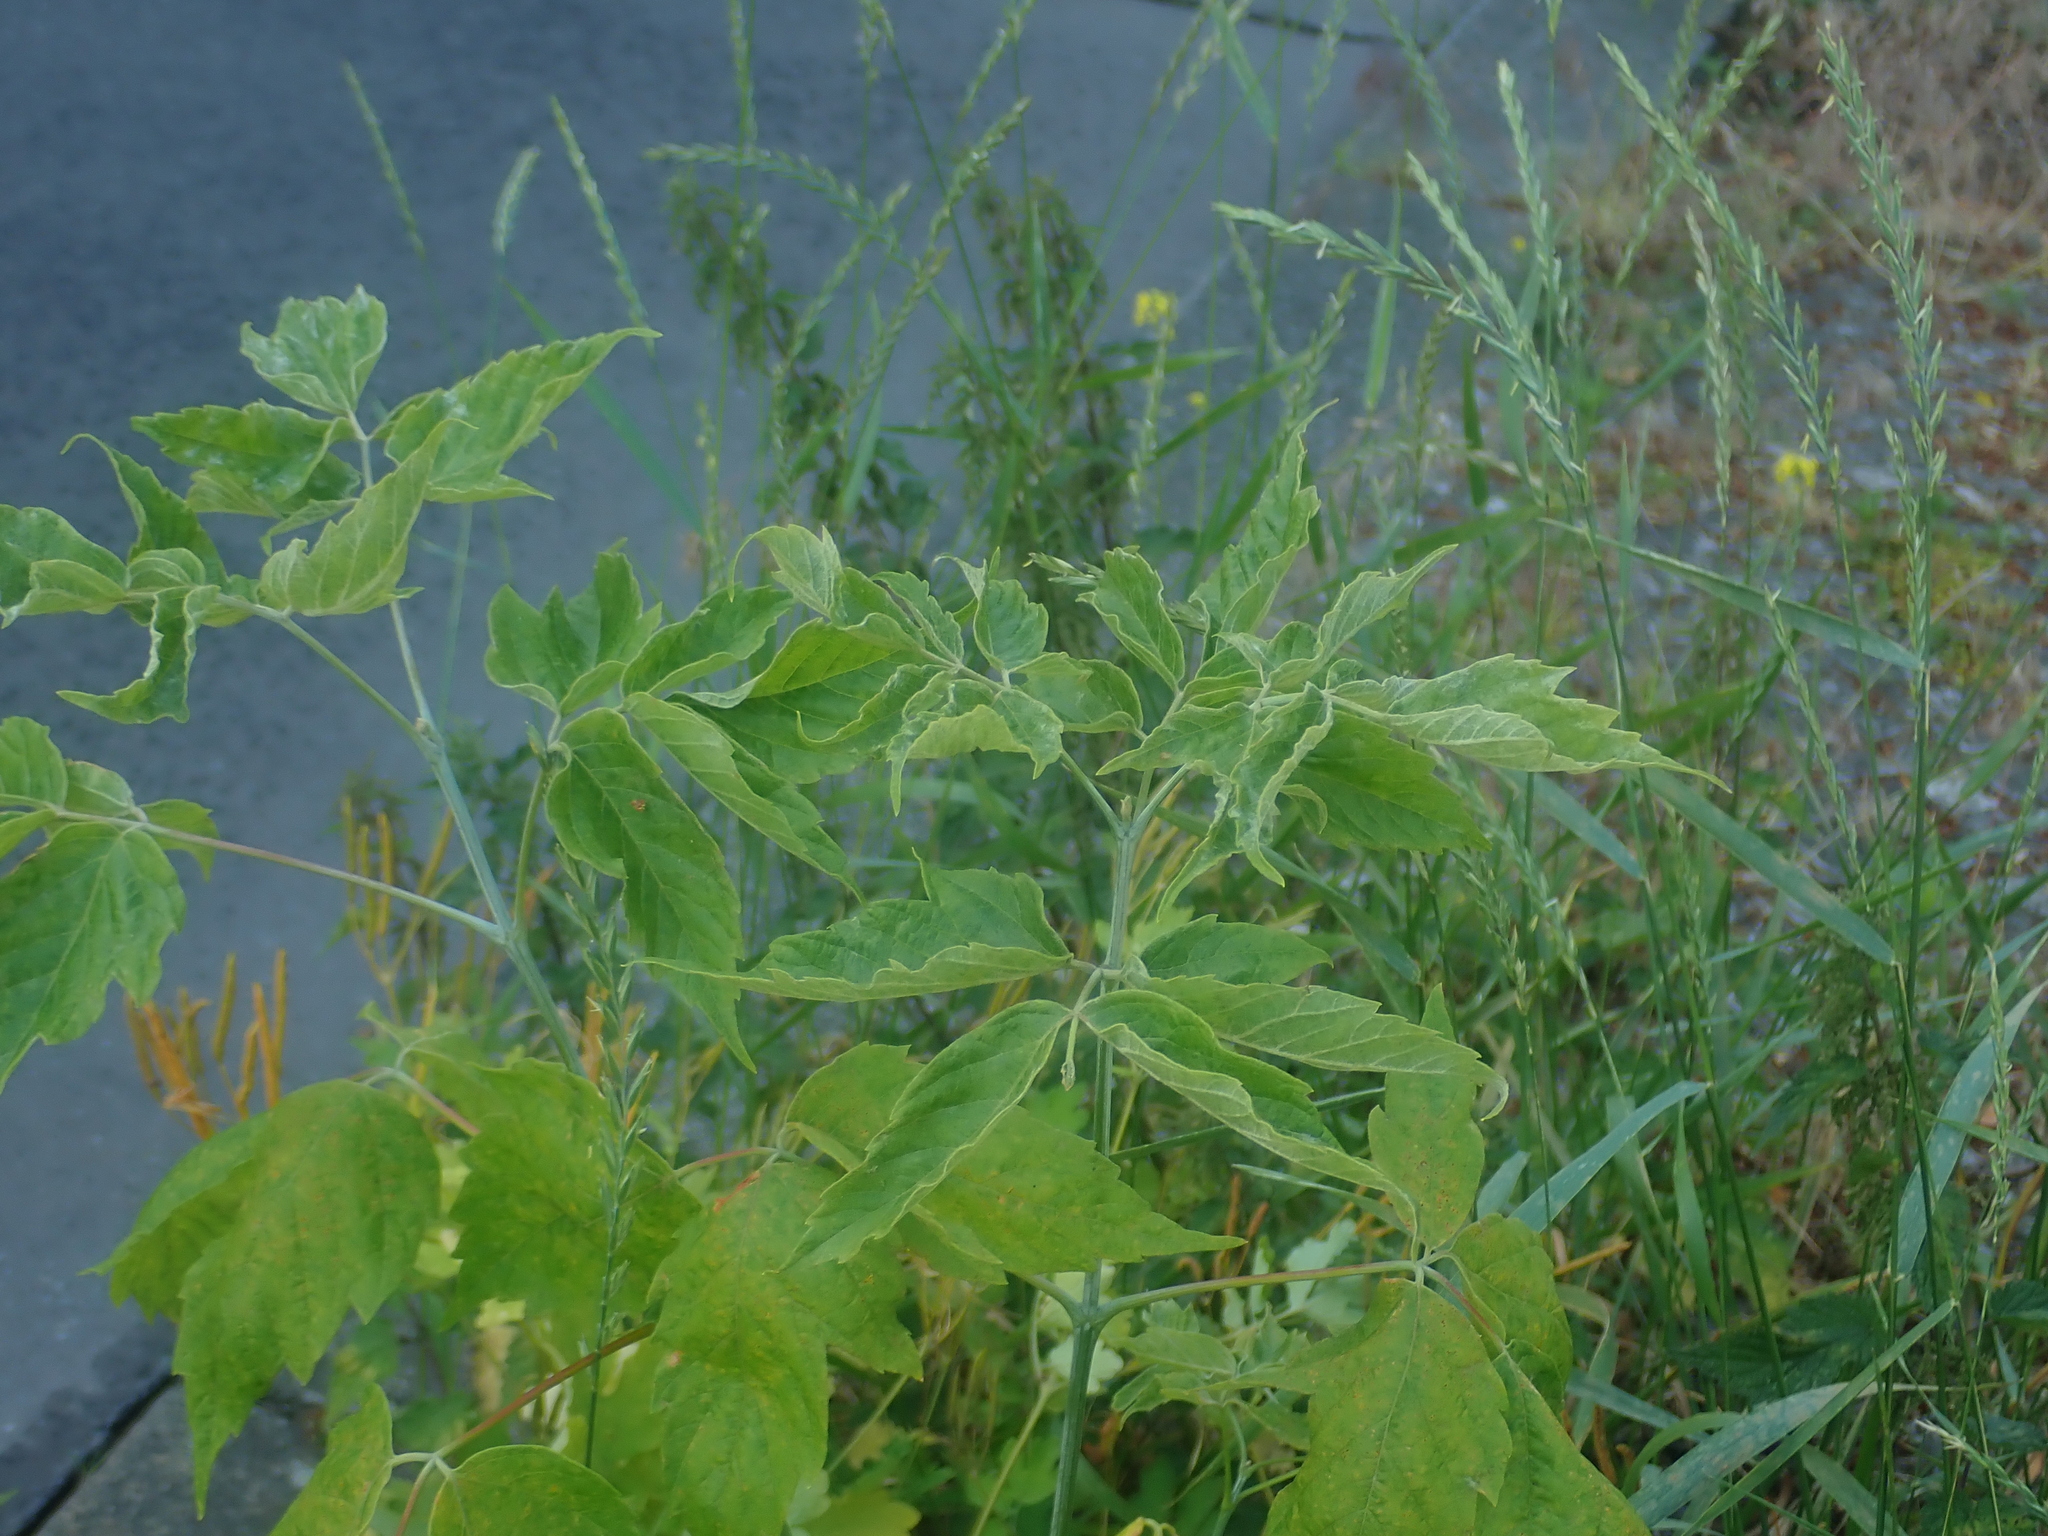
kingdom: Plantae
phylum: Tracheophyta
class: Magnoliopsida
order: Sapindales
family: Sapindaceae
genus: Acer
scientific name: Acer negundo
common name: Ashleaf maple
